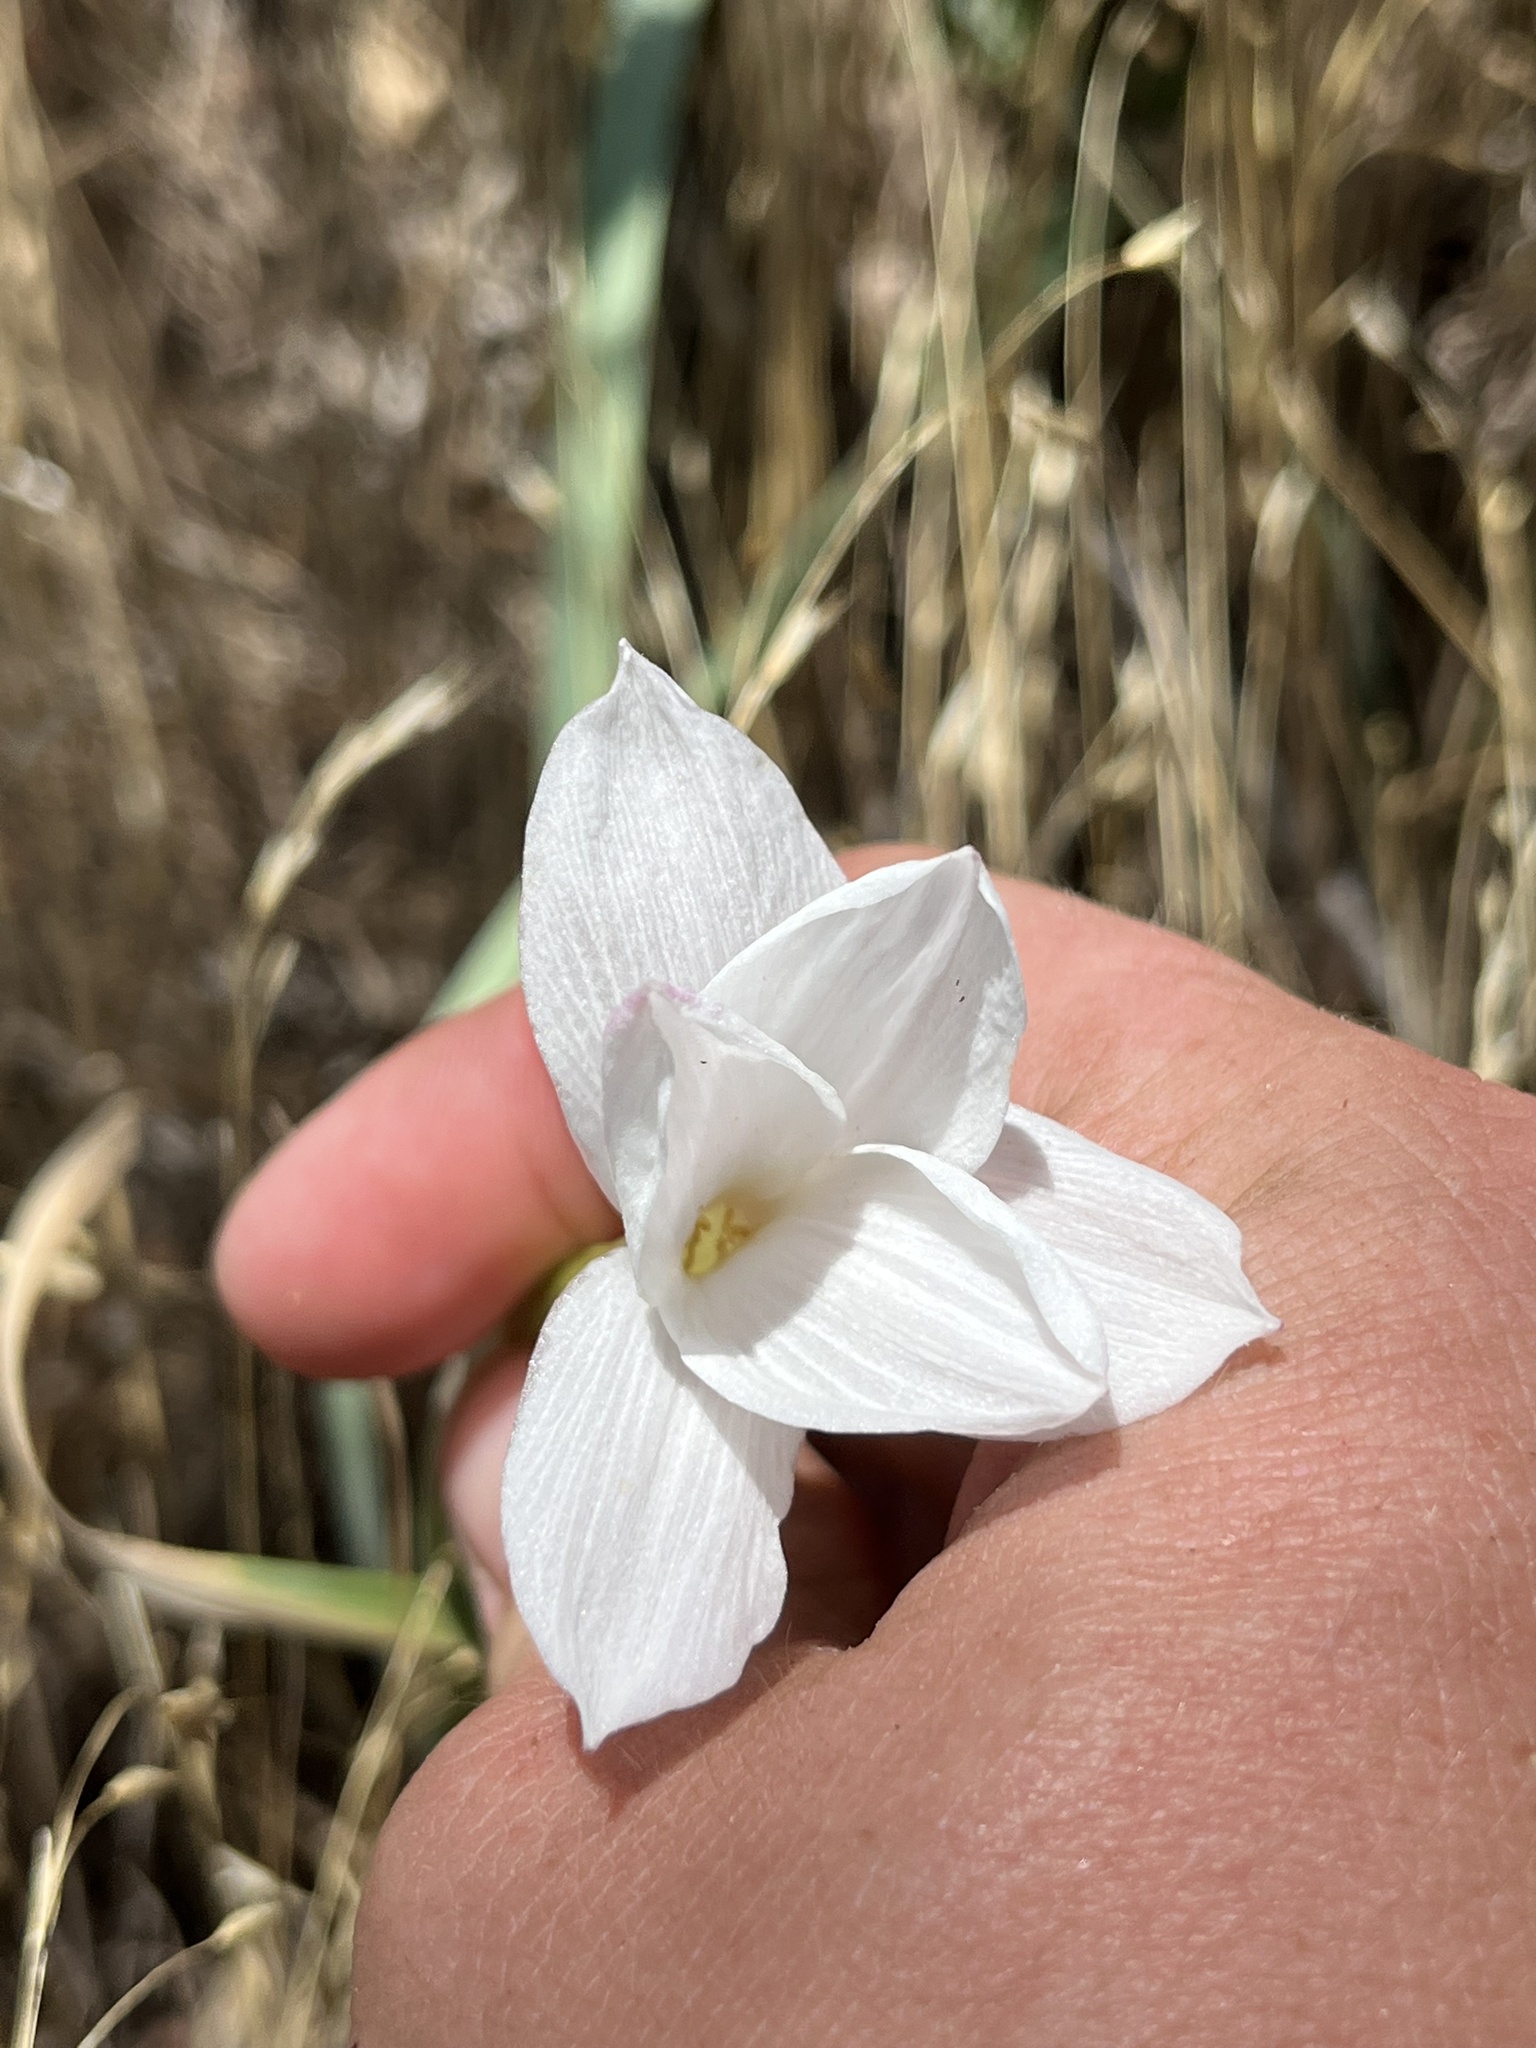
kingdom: Plantae
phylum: Tracheophyta
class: Liliopsida
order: Asparagales
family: Amaryllidaceae
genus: Zephyranthes
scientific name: Zephyranthes drummondii
